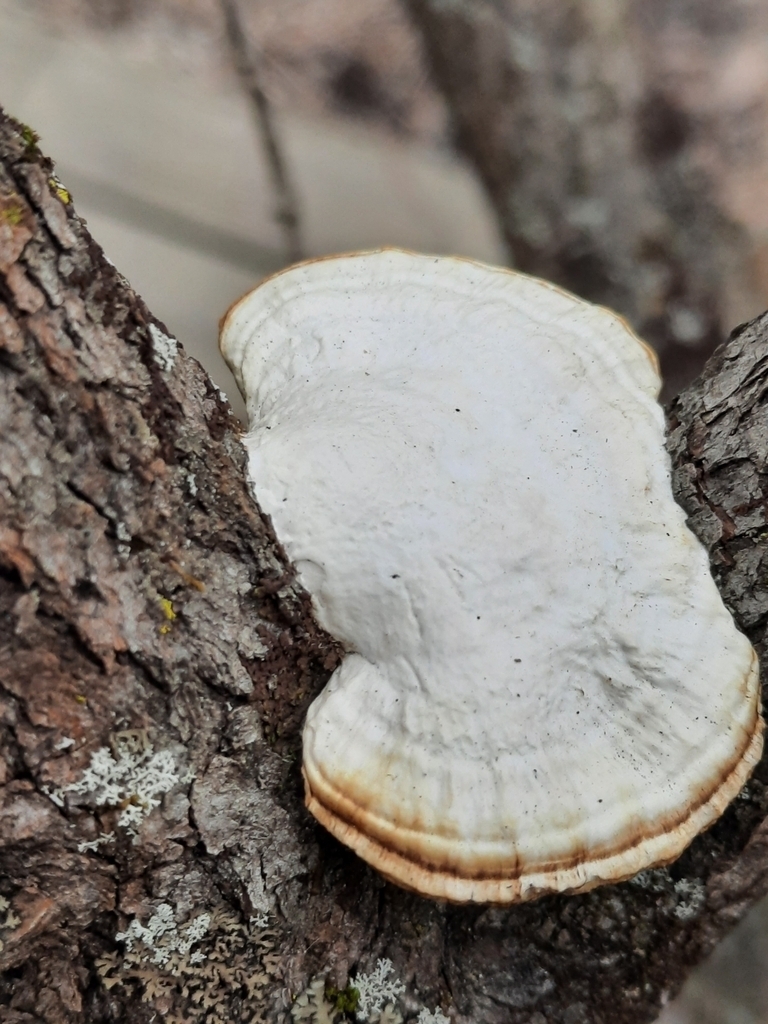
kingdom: Fungi
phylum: Basidiomycota
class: Agaricomycetes
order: Polyporales
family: Polyporaceae
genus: Daedaleopsis
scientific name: Daedaleopsis confragosa
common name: Blushing bracket
